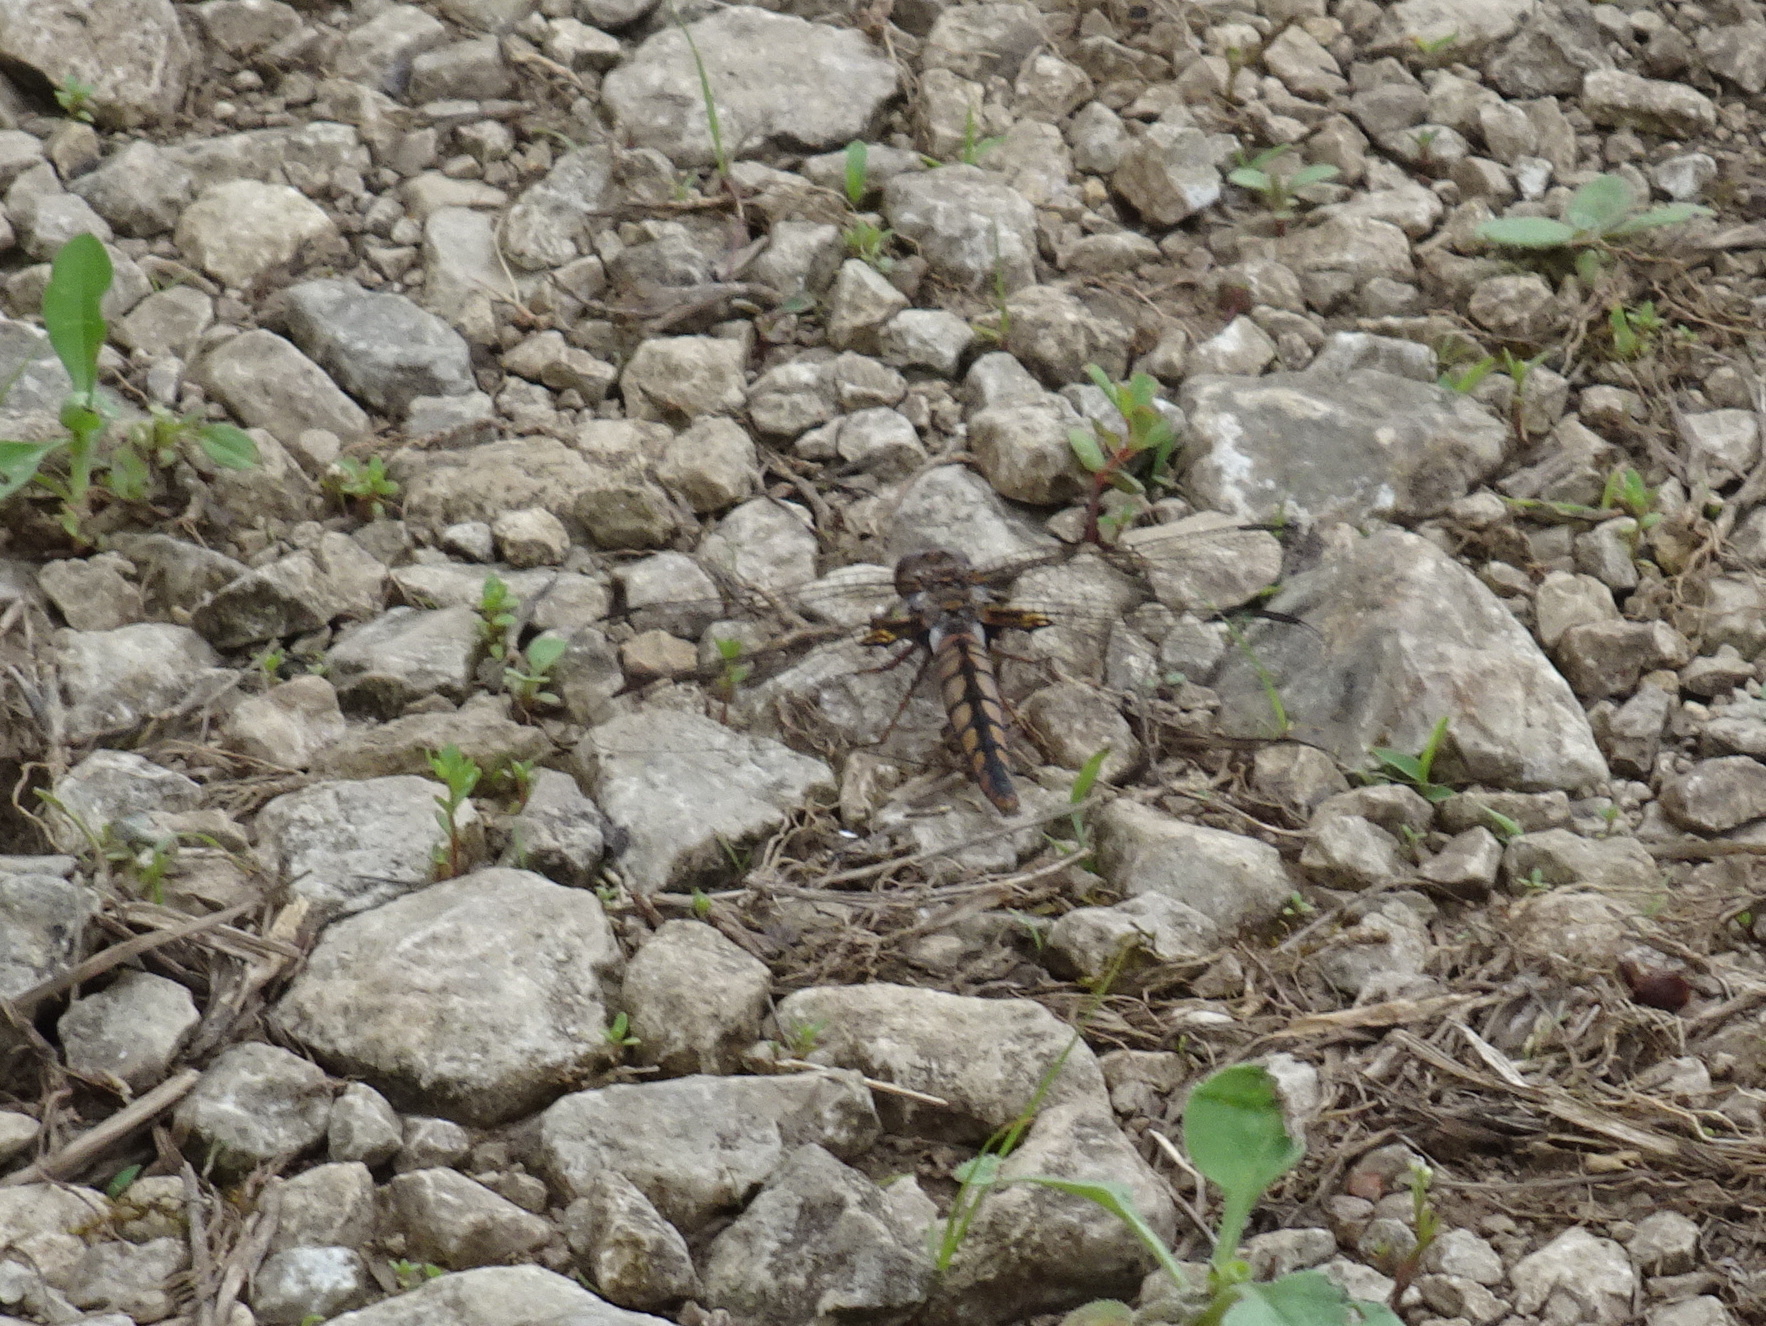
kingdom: Animalia
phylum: Arthropoda
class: Insecta
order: Odonata
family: Libellulidae
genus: Ladona
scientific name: Ladona deplanata
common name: Blue corporal
